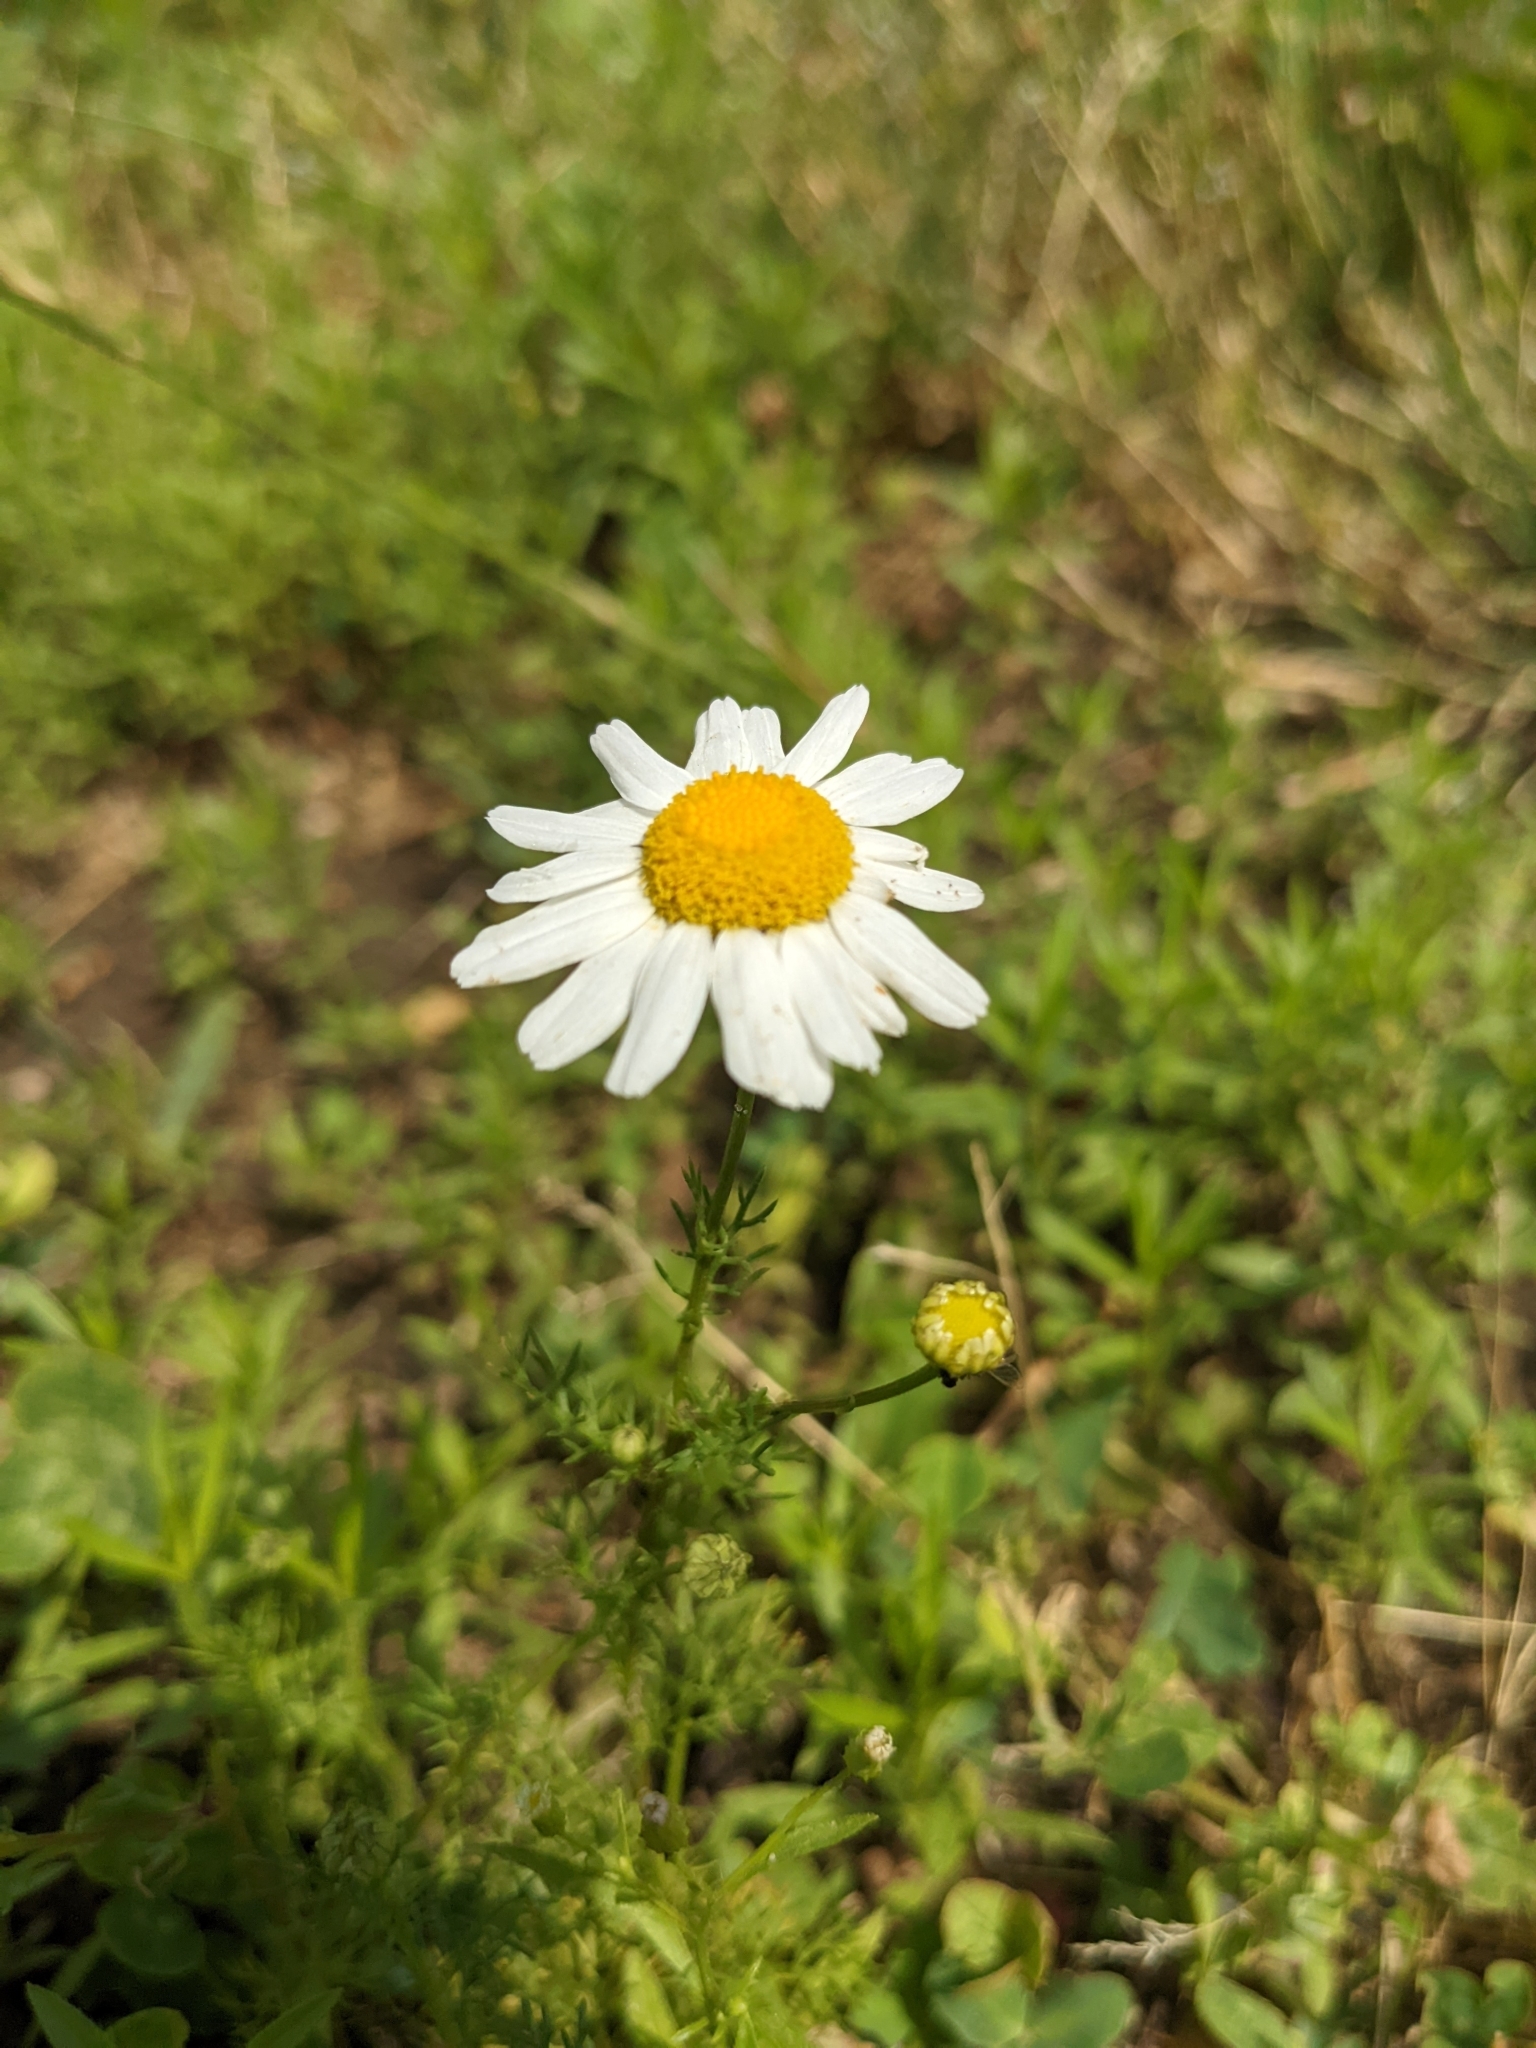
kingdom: Plantae
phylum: Tracheophyta
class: Magnoliopsida
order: Asterales
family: Asteraceae
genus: Tripleurospermum
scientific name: Tripleurospermum inodorum
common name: Scentless mayweed
